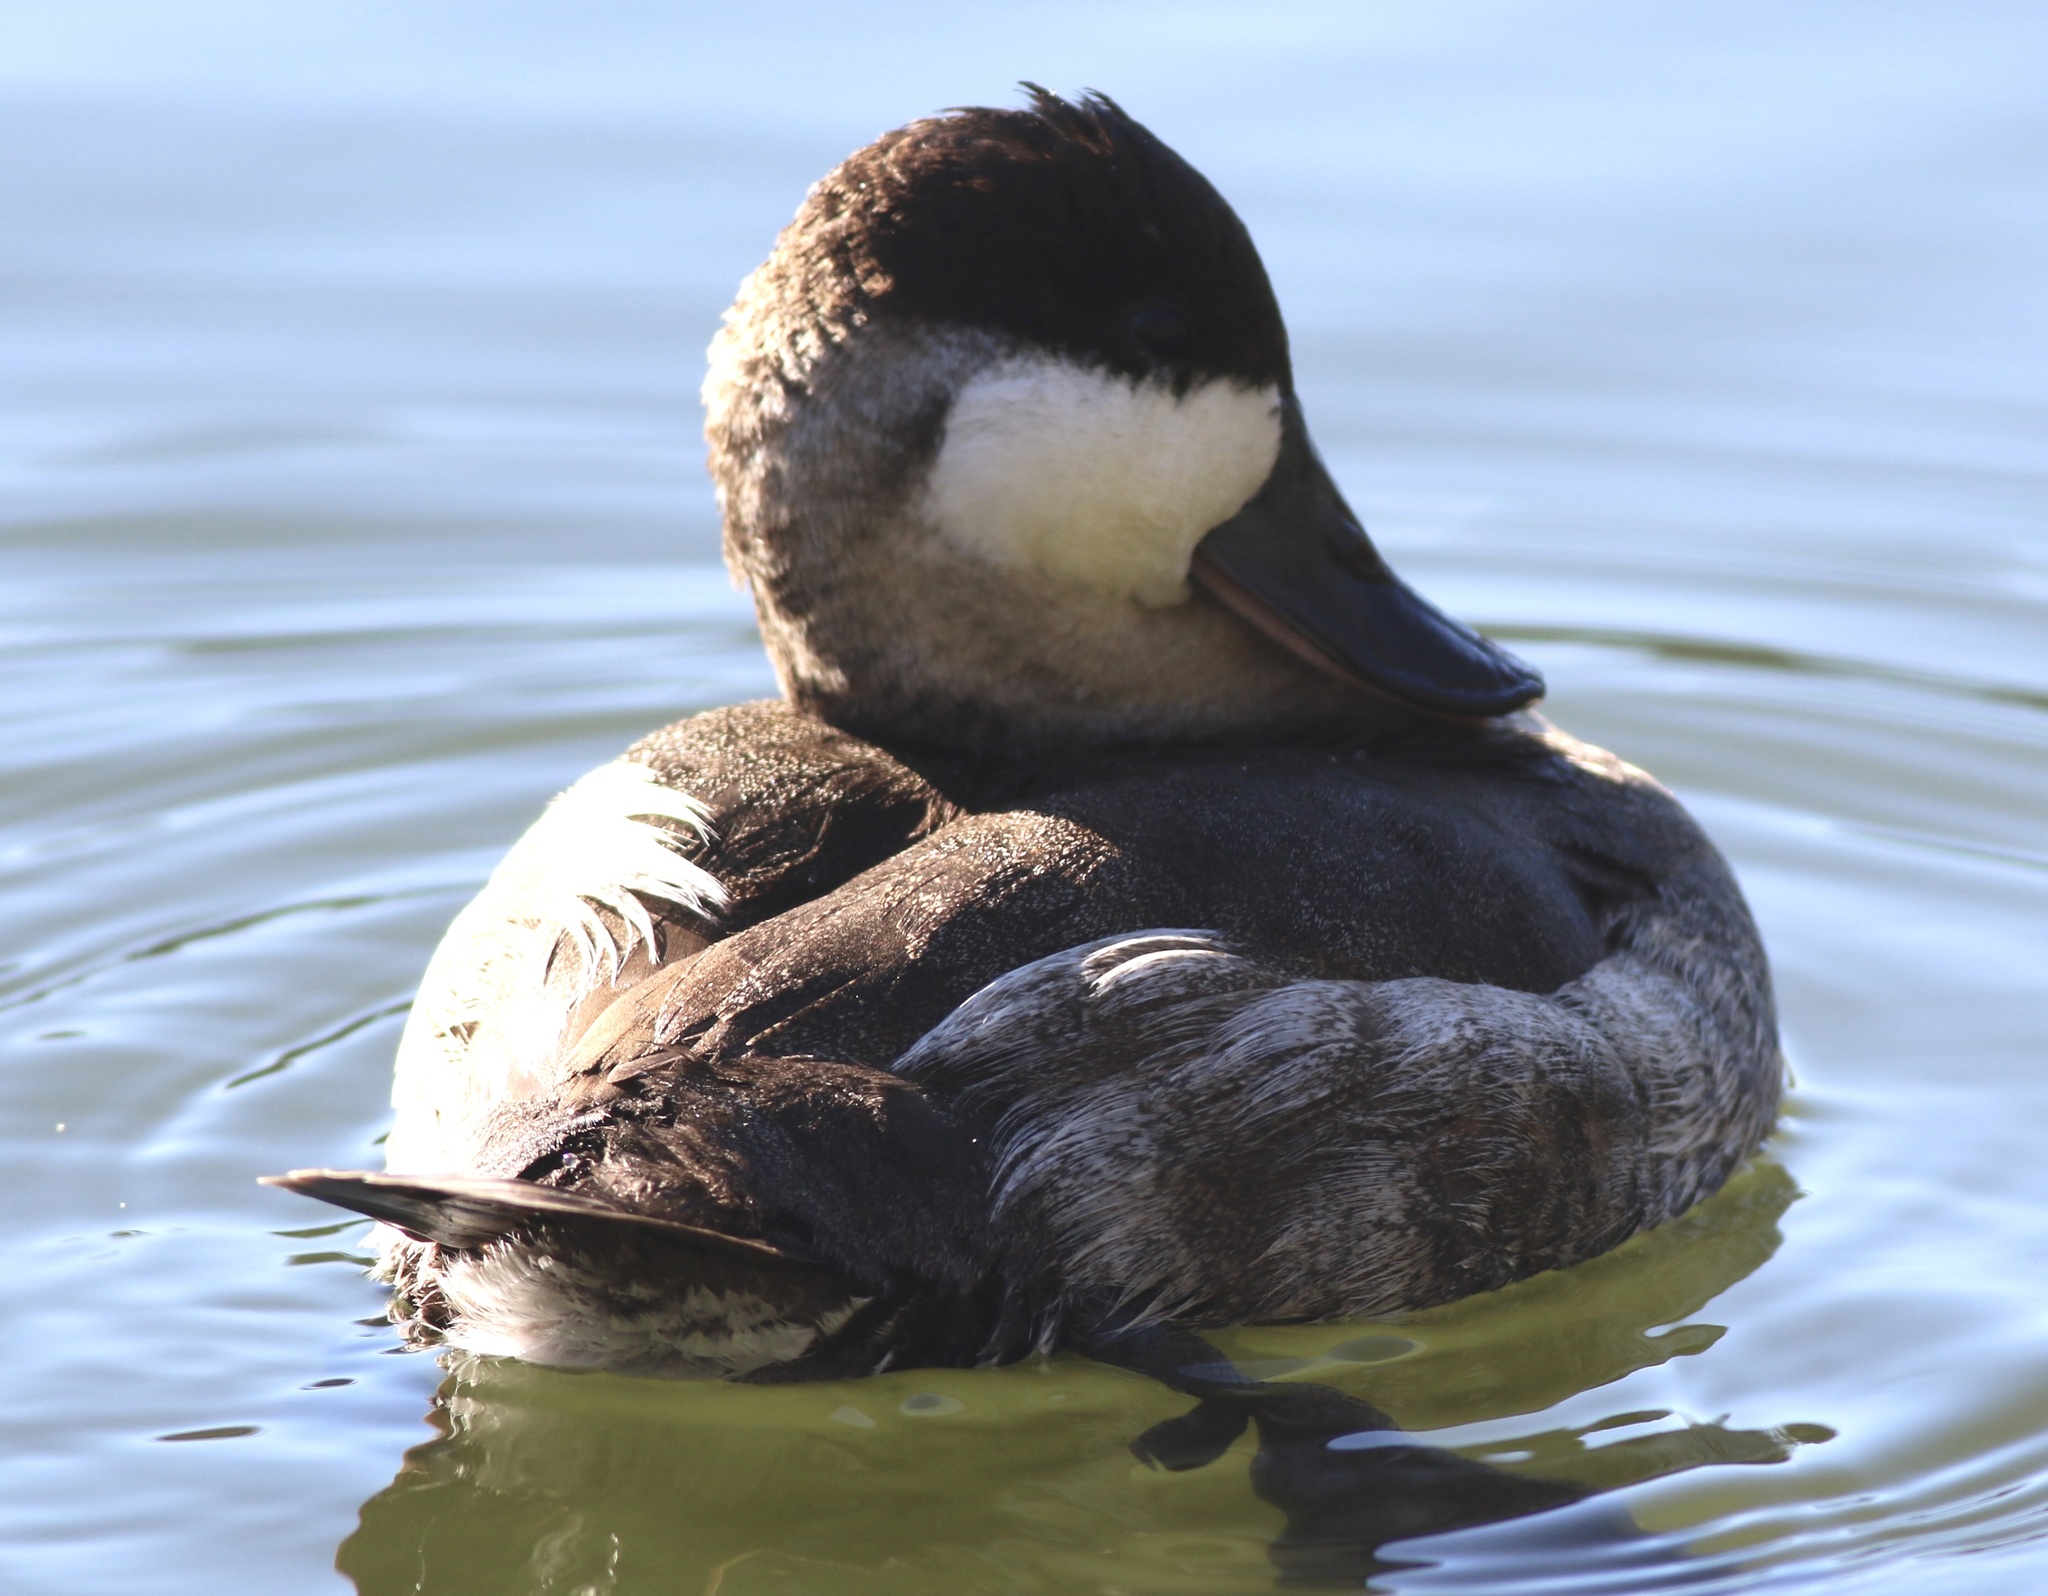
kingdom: Animalia
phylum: Chordata
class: Aves
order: Anseriformes
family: Anatidae
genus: Oxyura
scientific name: Oxyura jamaicensis
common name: Ruddy duck
